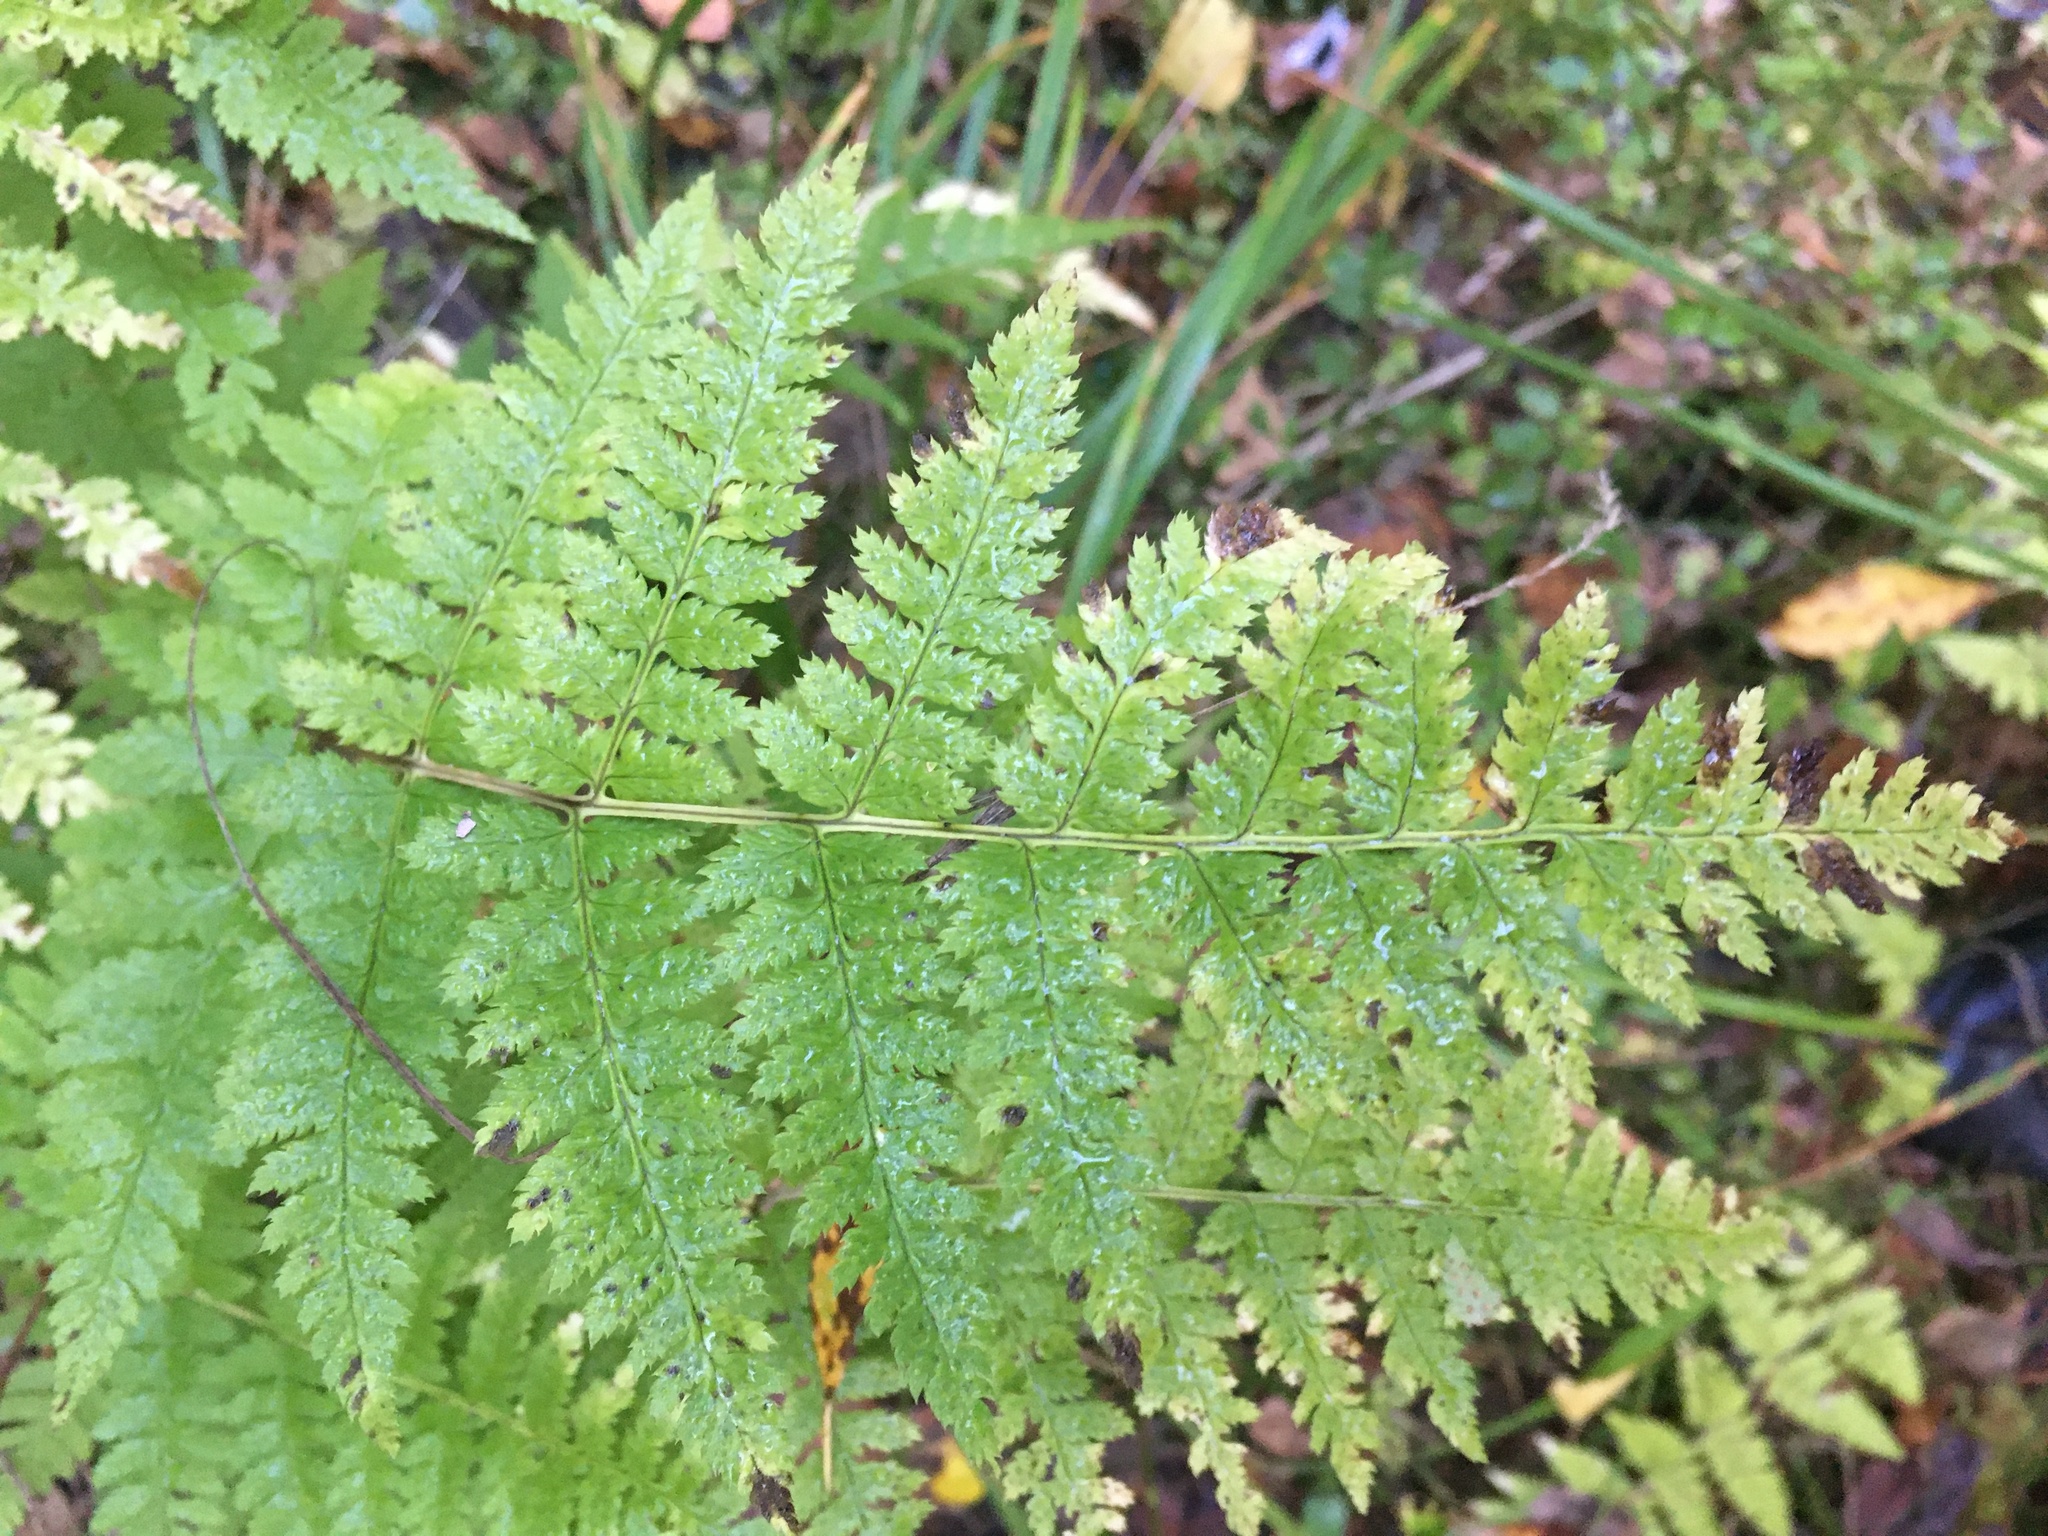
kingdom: Plantae
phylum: Tracheophyta
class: Polypodiopsida
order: Polypodiales
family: Dryopteridaceae
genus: Dryopteris
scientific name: Dryopteris carthusiana
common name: Narrow buckler-fern
